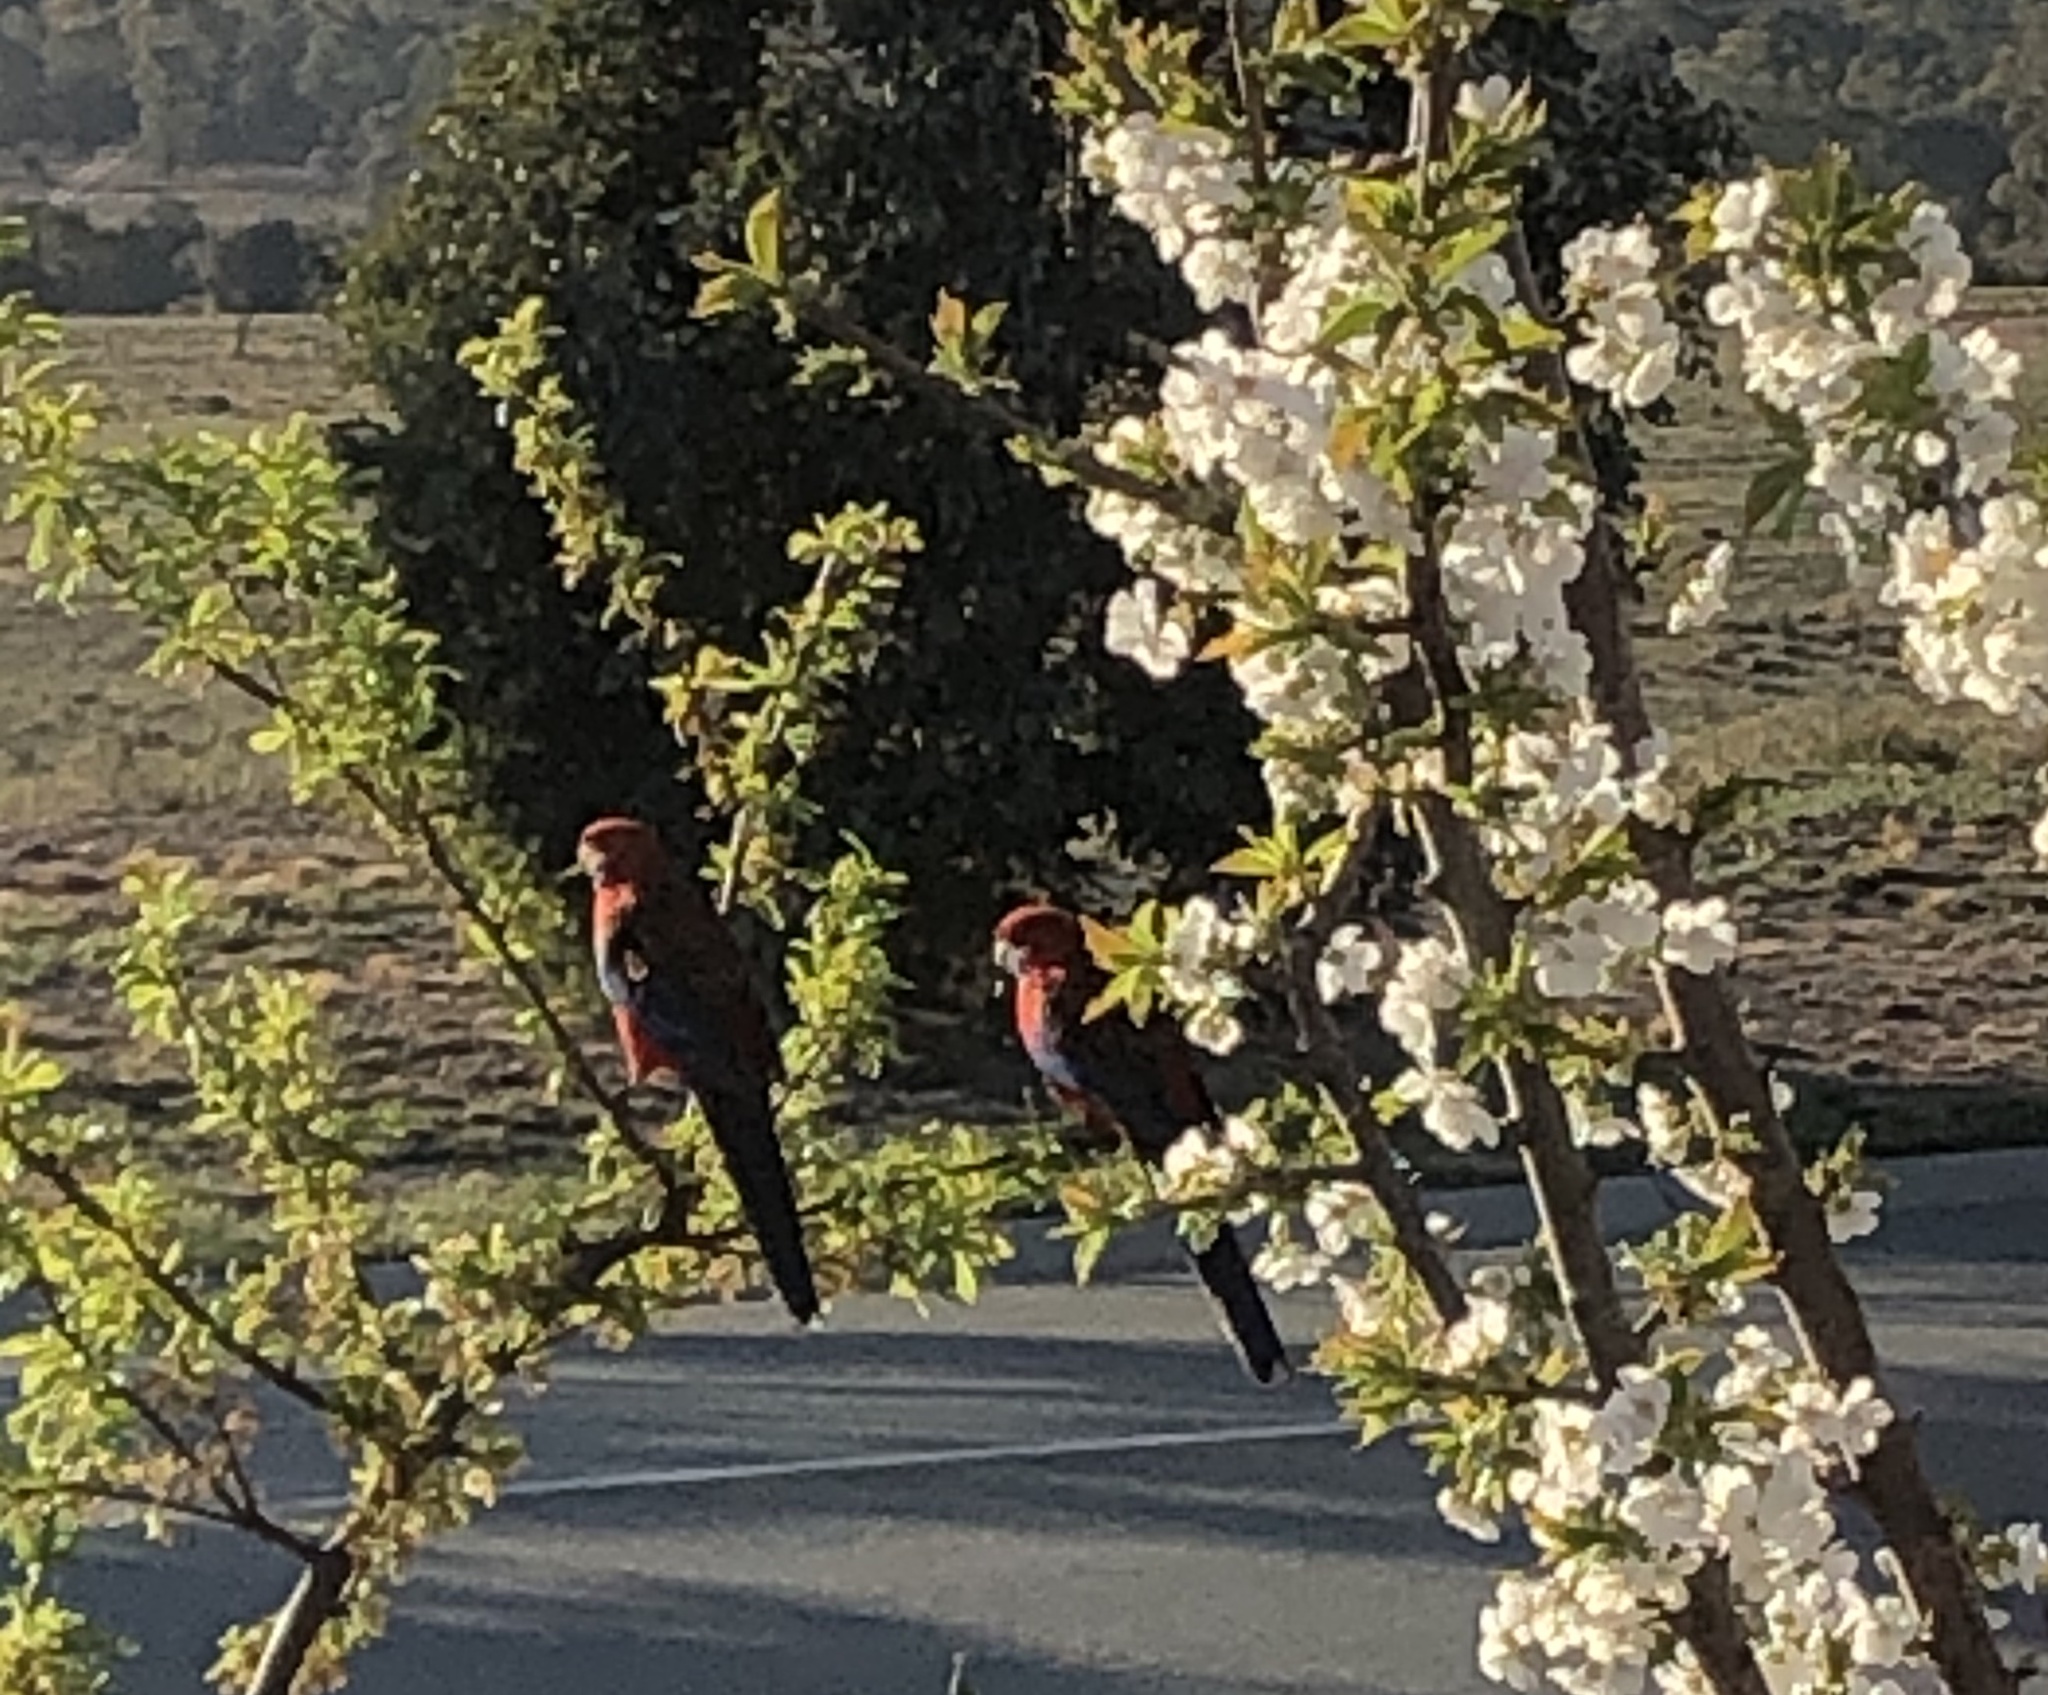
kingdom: Animalia
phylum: Chordata
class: Aves
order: Psittaciformes
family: Psittacidae
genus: Platycercus
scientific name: Platycercus elegans
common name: Crimson rosella
